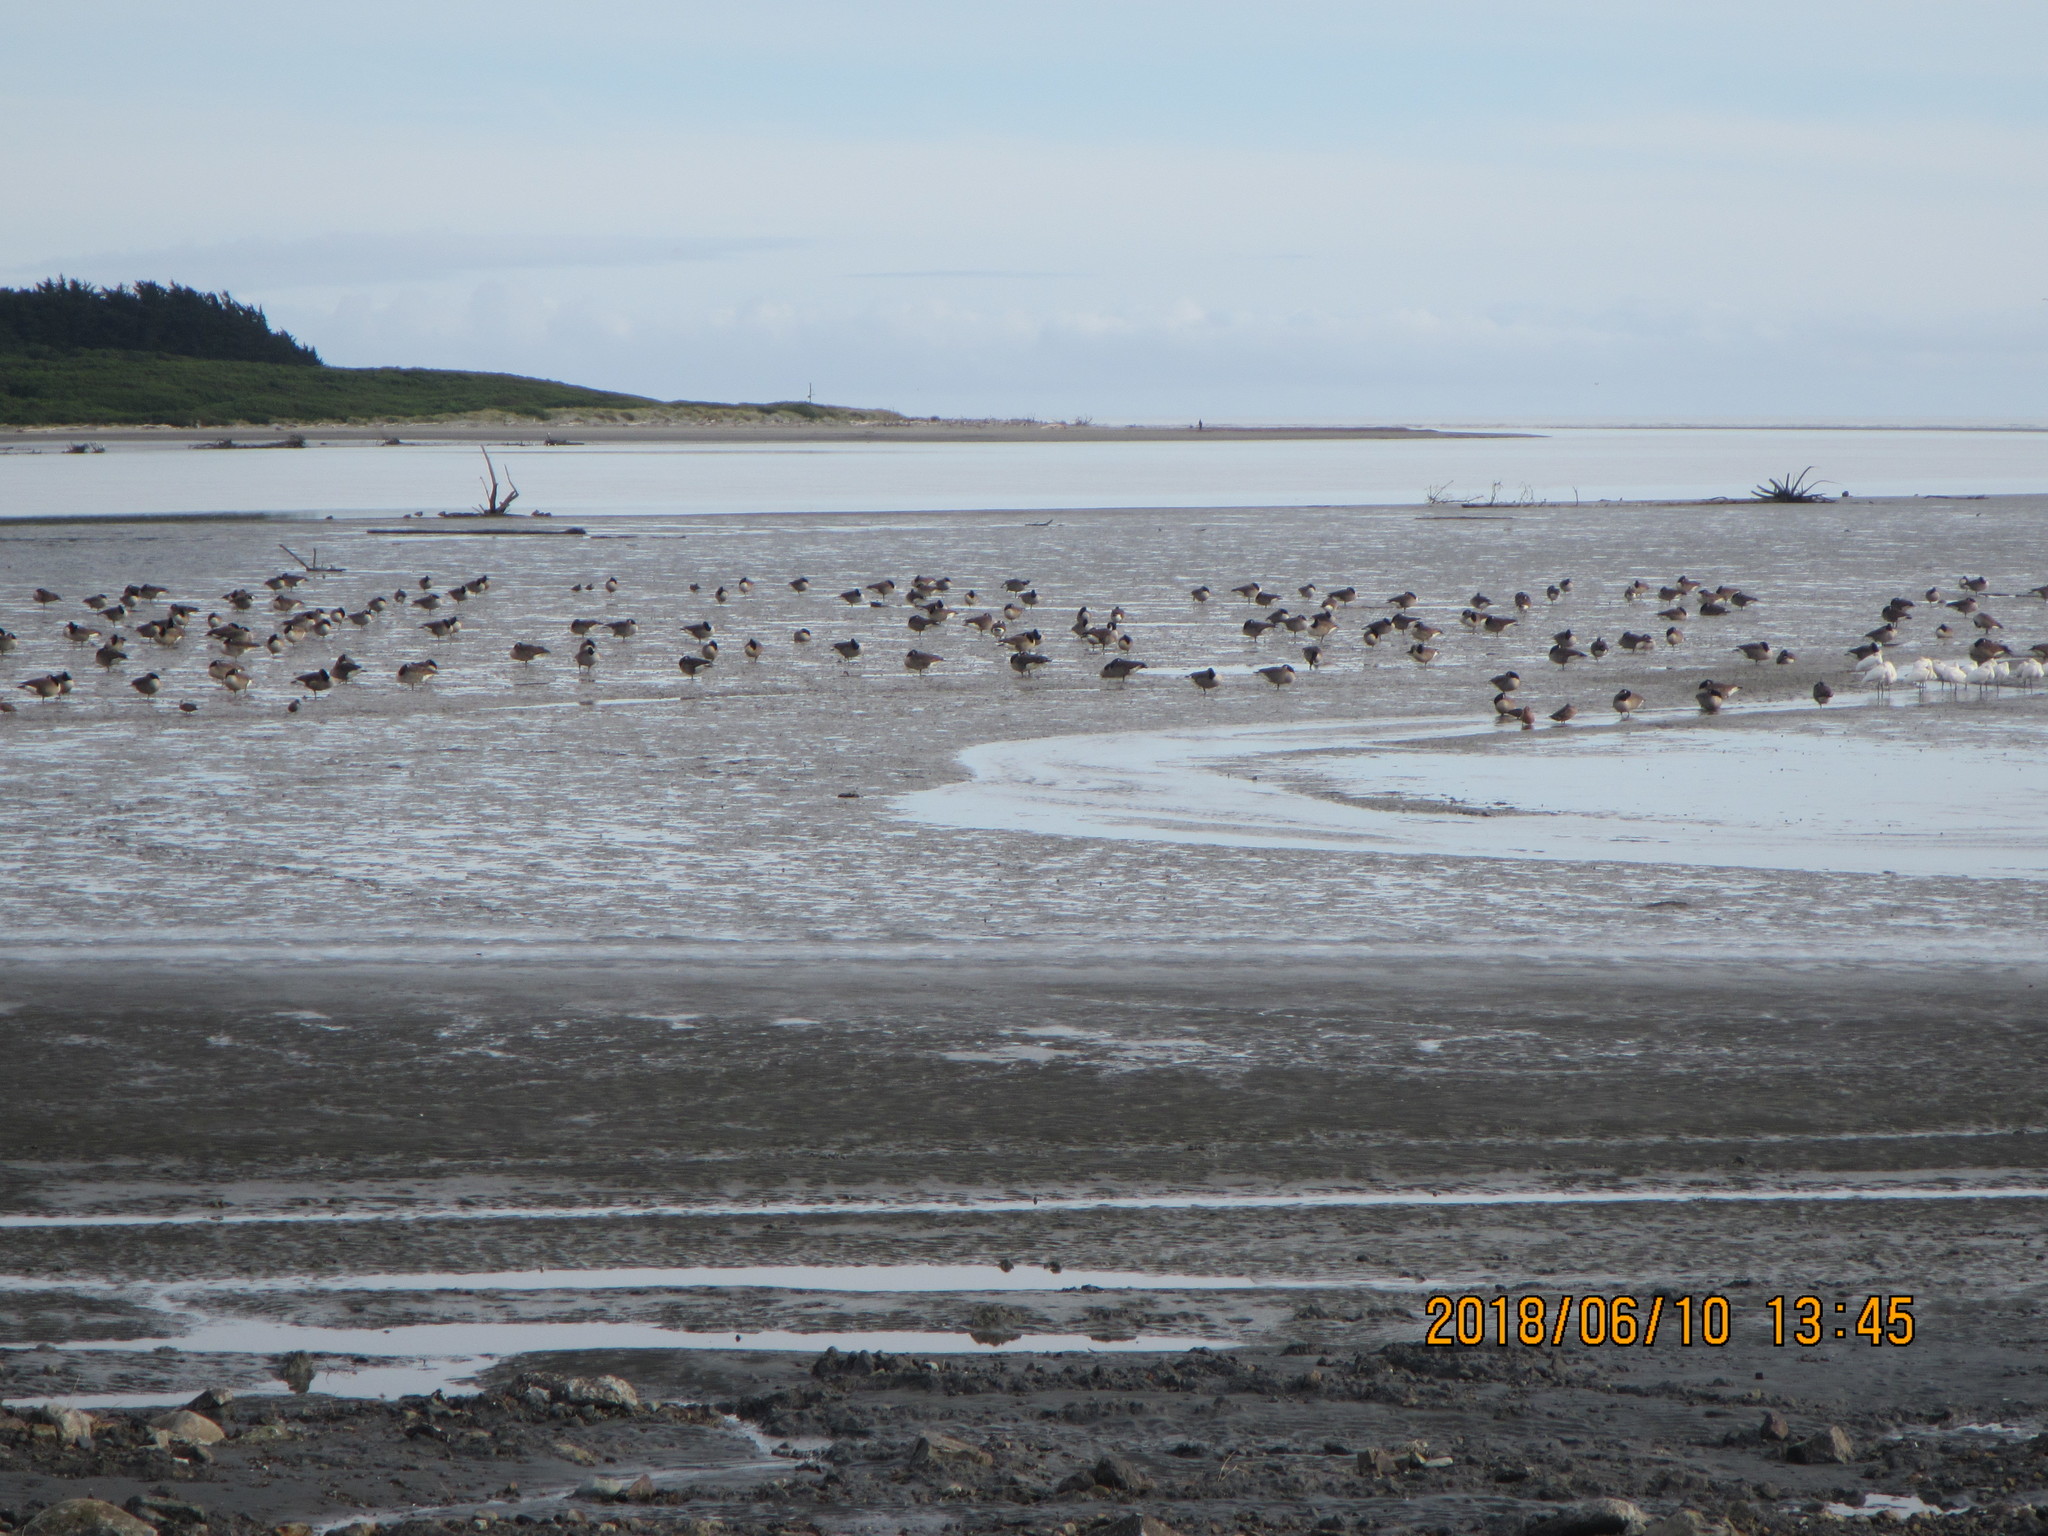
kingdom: Animalia
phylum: Chordata
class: Aves
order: Anseriformes
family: Anatidae
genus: Branta
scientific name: Branta canadensis
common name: Canada goose
